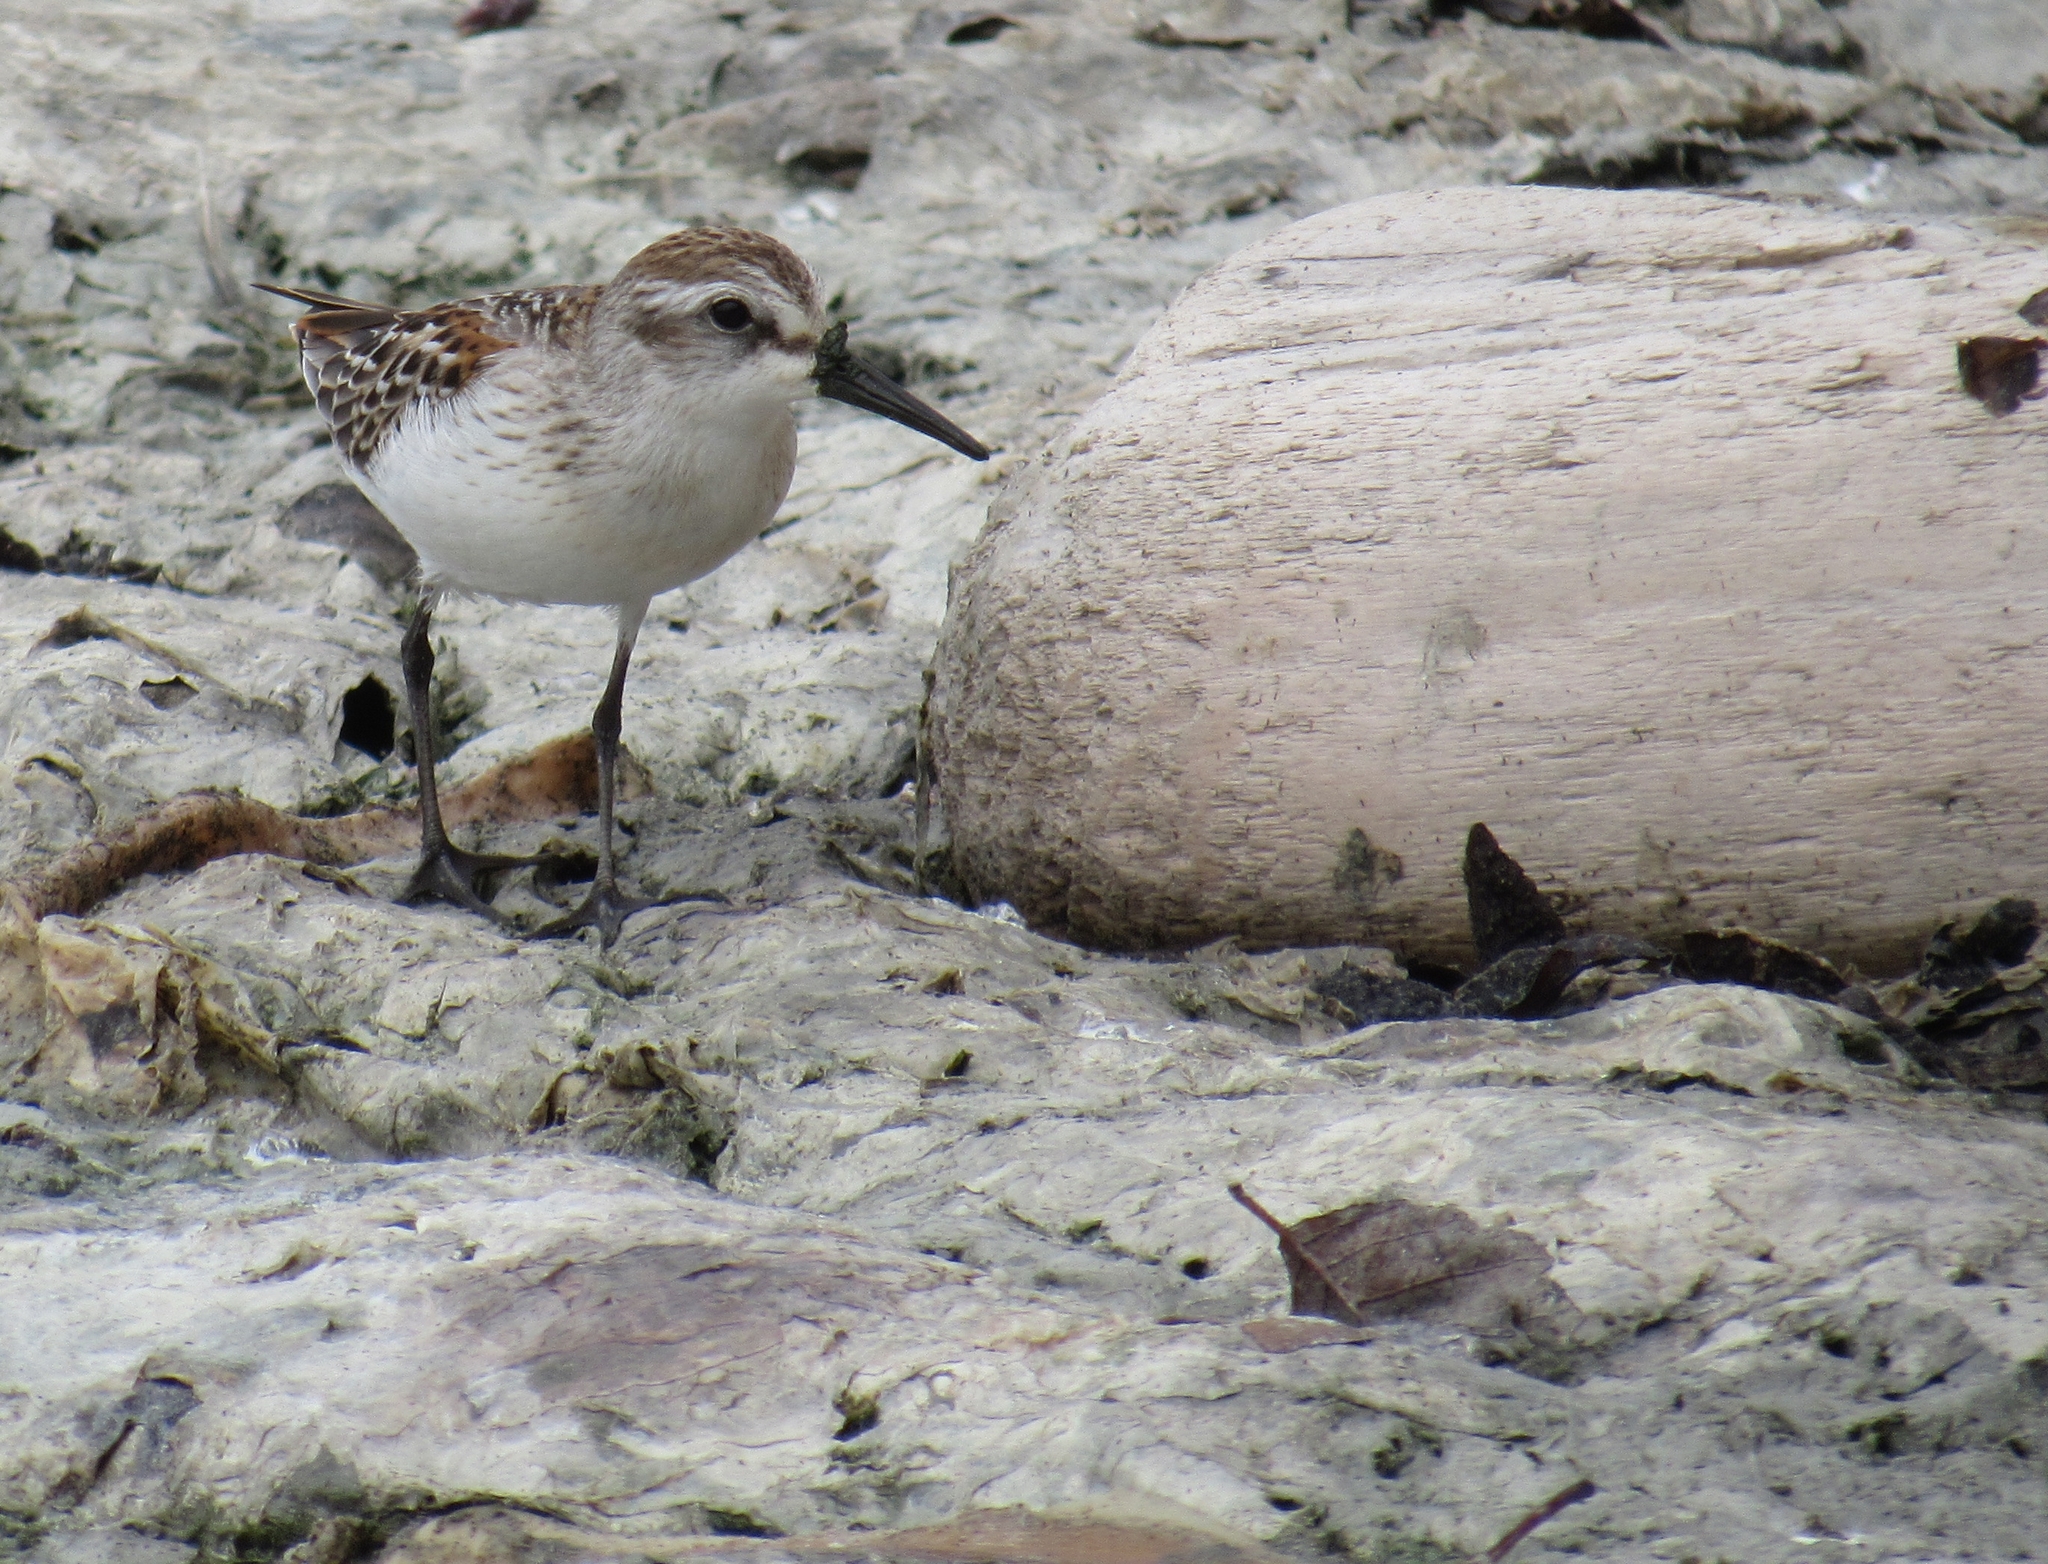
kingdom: Animalia
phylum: Chordata
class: Aves
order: Charadriiformes
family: Scolopacidae
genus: Calidris
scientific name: Calidris mauri
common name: Western sandpiper
